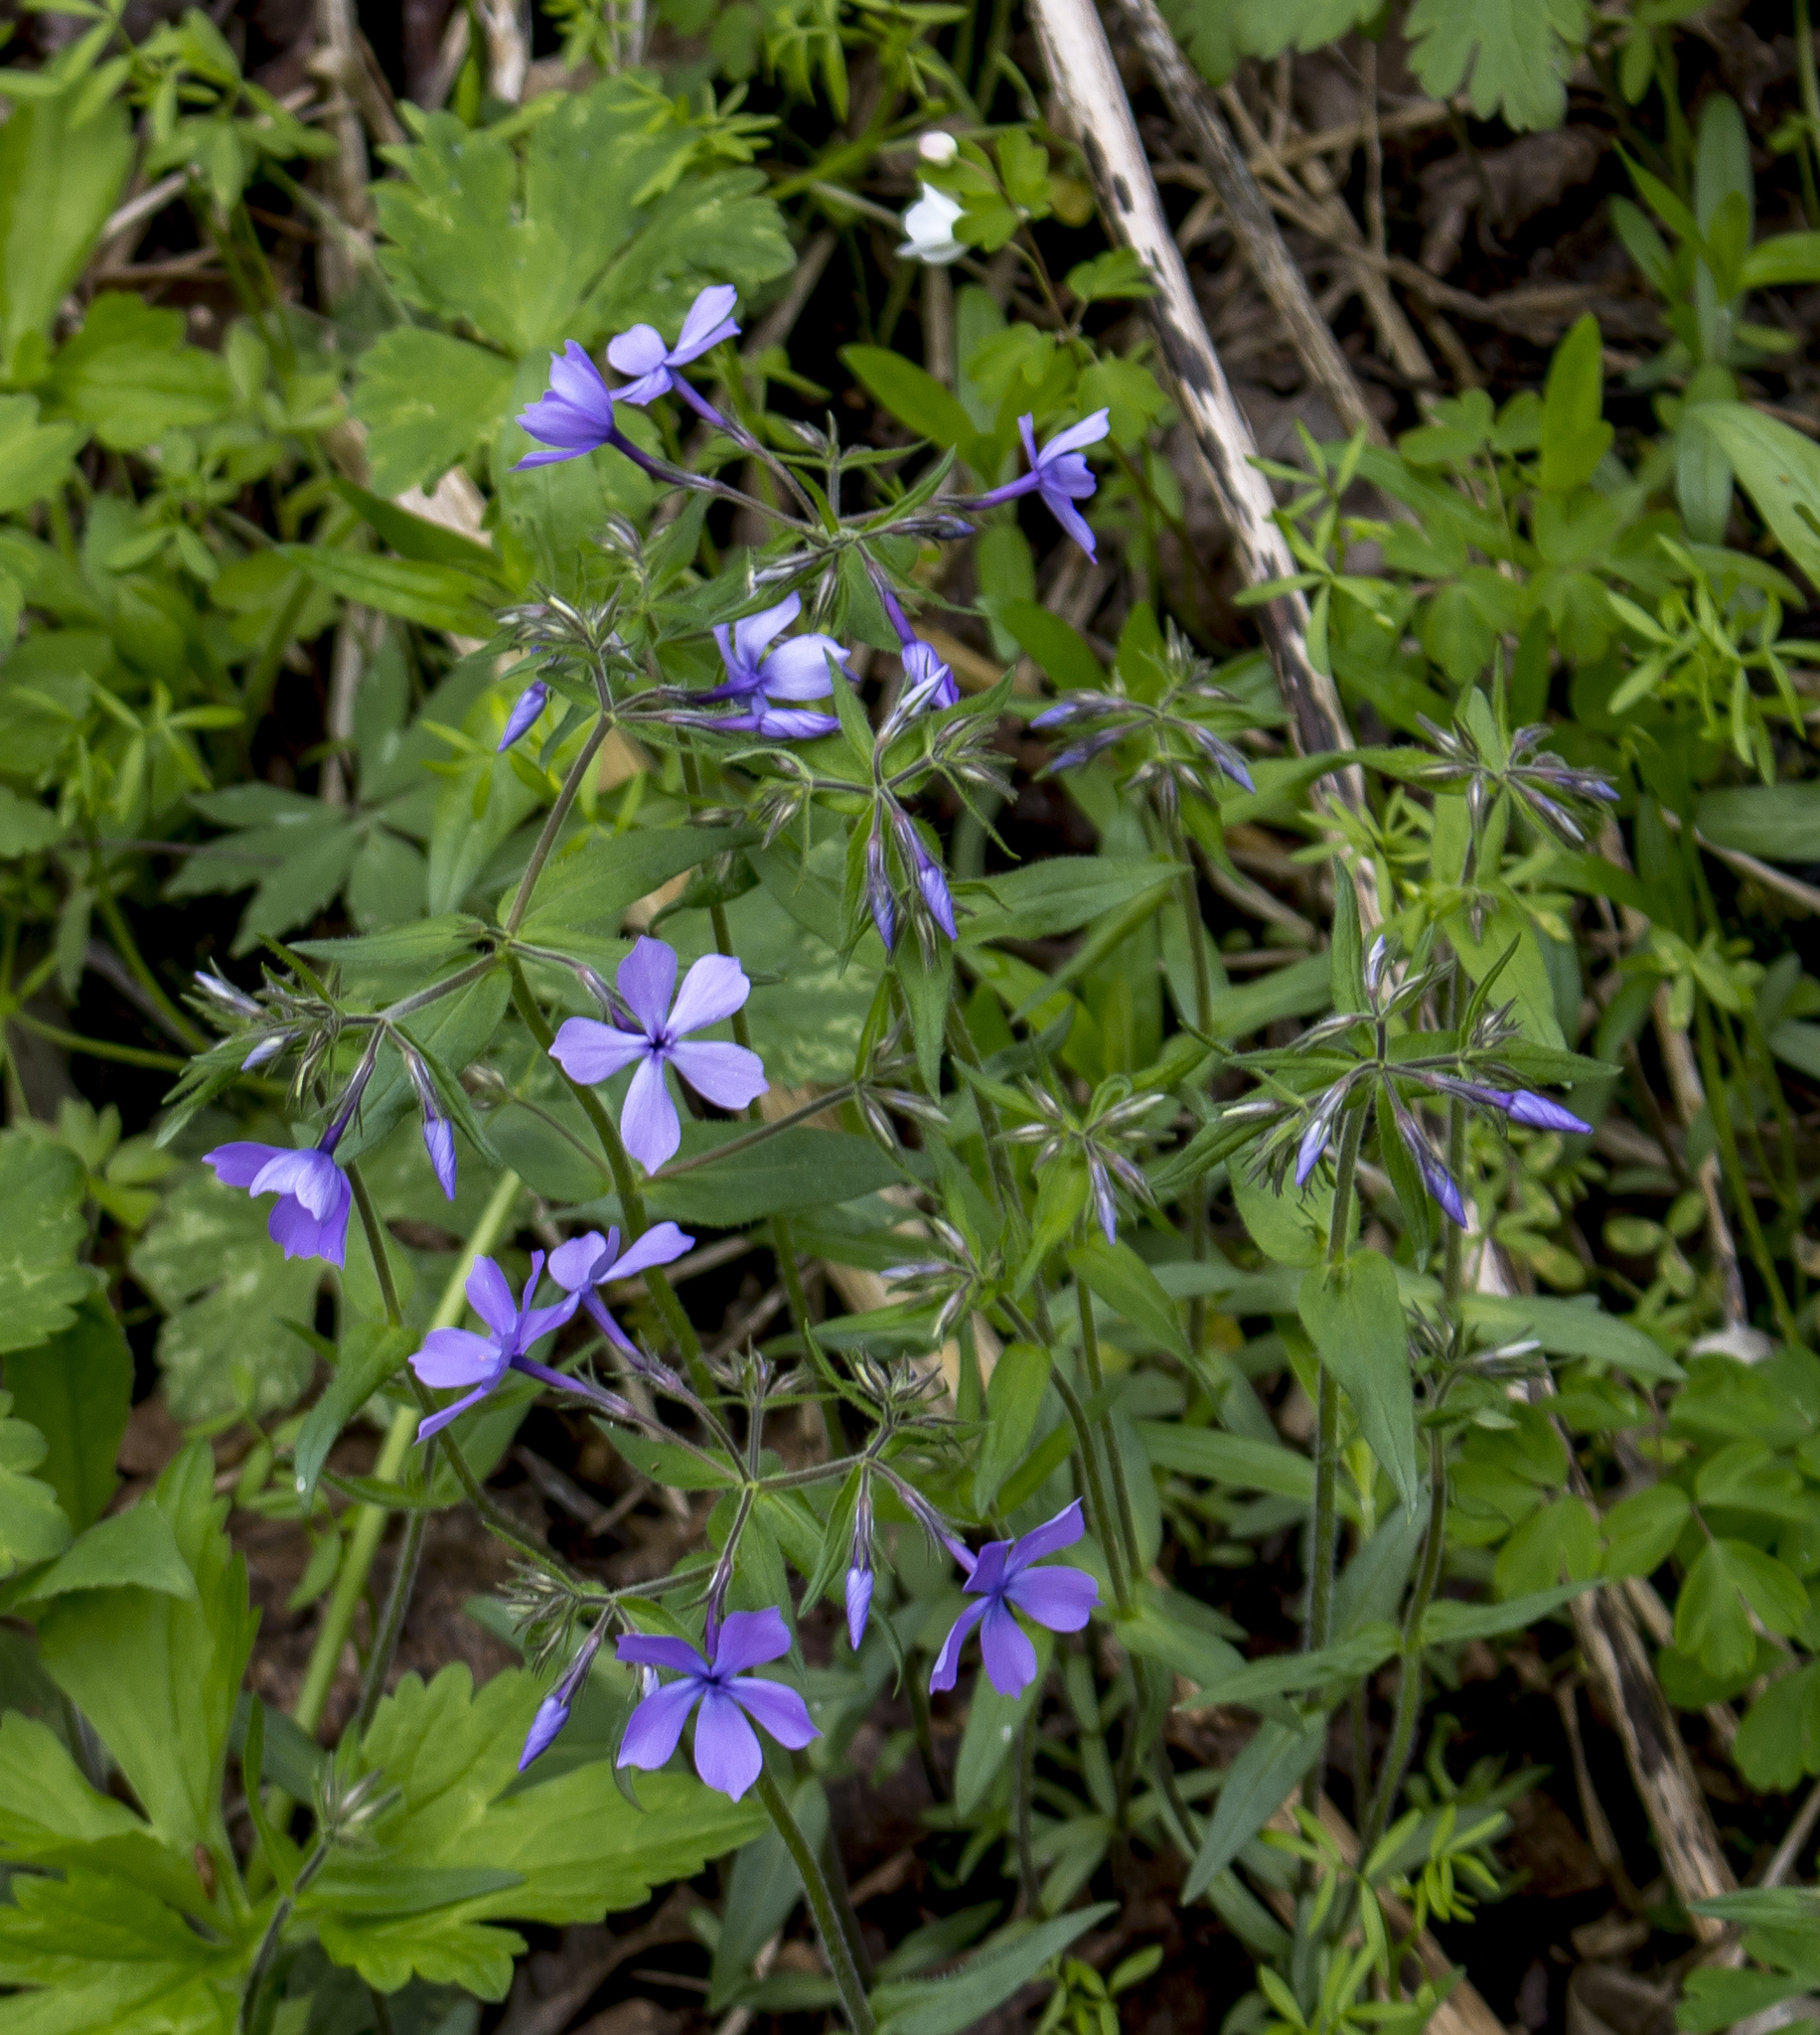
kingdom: Plantae
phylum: Tracheophyta
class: Magnoliopsida
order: Ericales
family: Polemoniaceae
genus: Phlox
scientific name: Phlox divaricata
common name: Blue phlox
